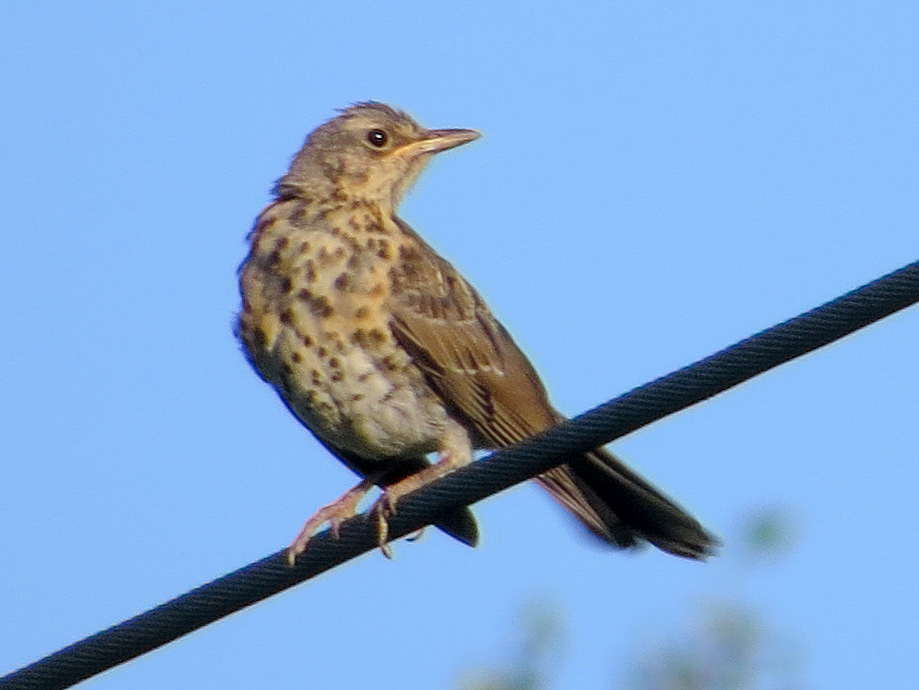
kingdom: Animalia
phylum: Chordata
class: Aves
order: Passeriformes
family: Turdidae
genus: Turdus
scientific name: Turdus pilaris
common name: Fieldfare
